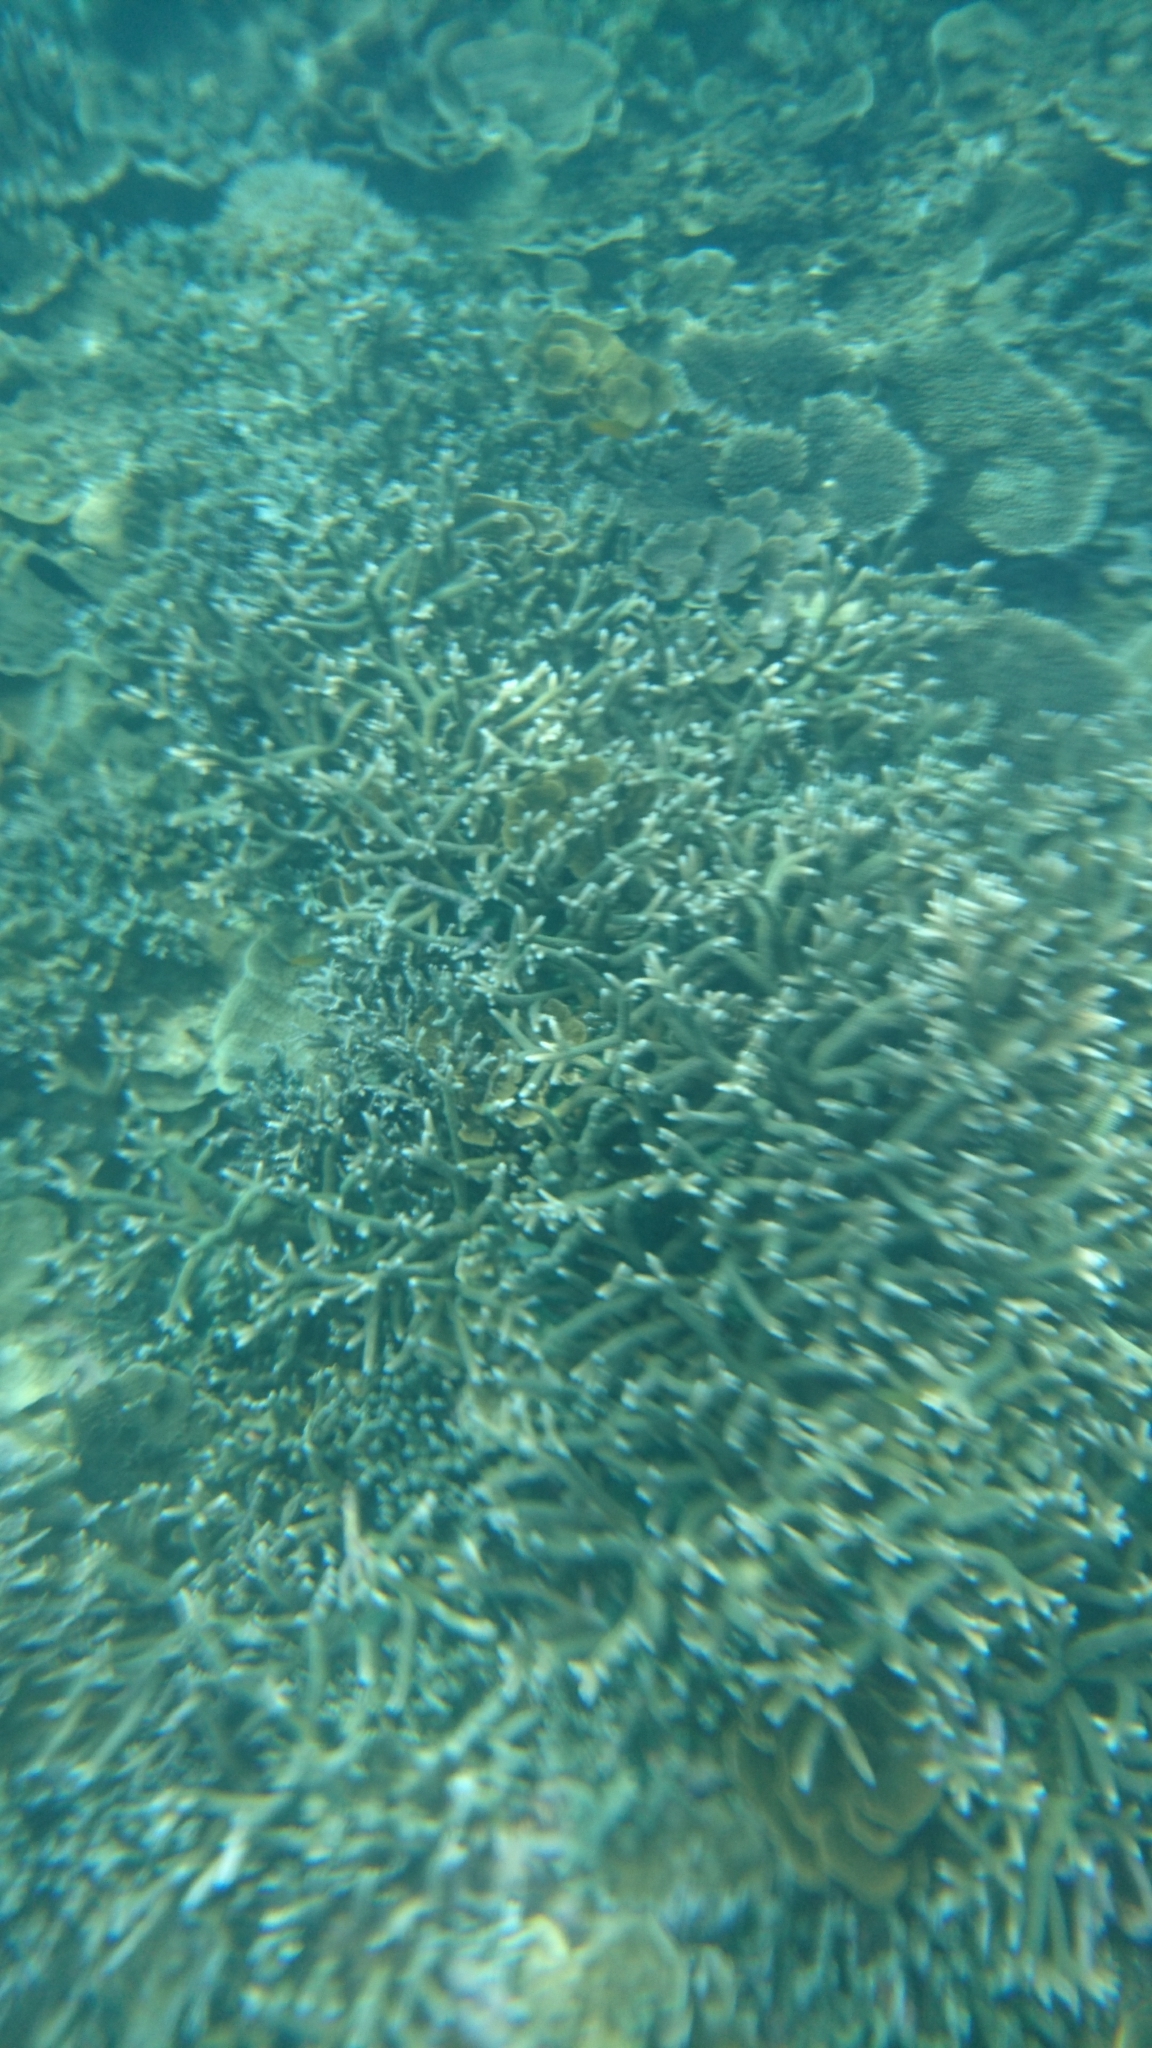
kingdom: Animalia
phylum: Cnidaria
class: Anthozoa
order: Scleractinia
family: Acroporidae
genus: Acropora
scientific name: Acropora
